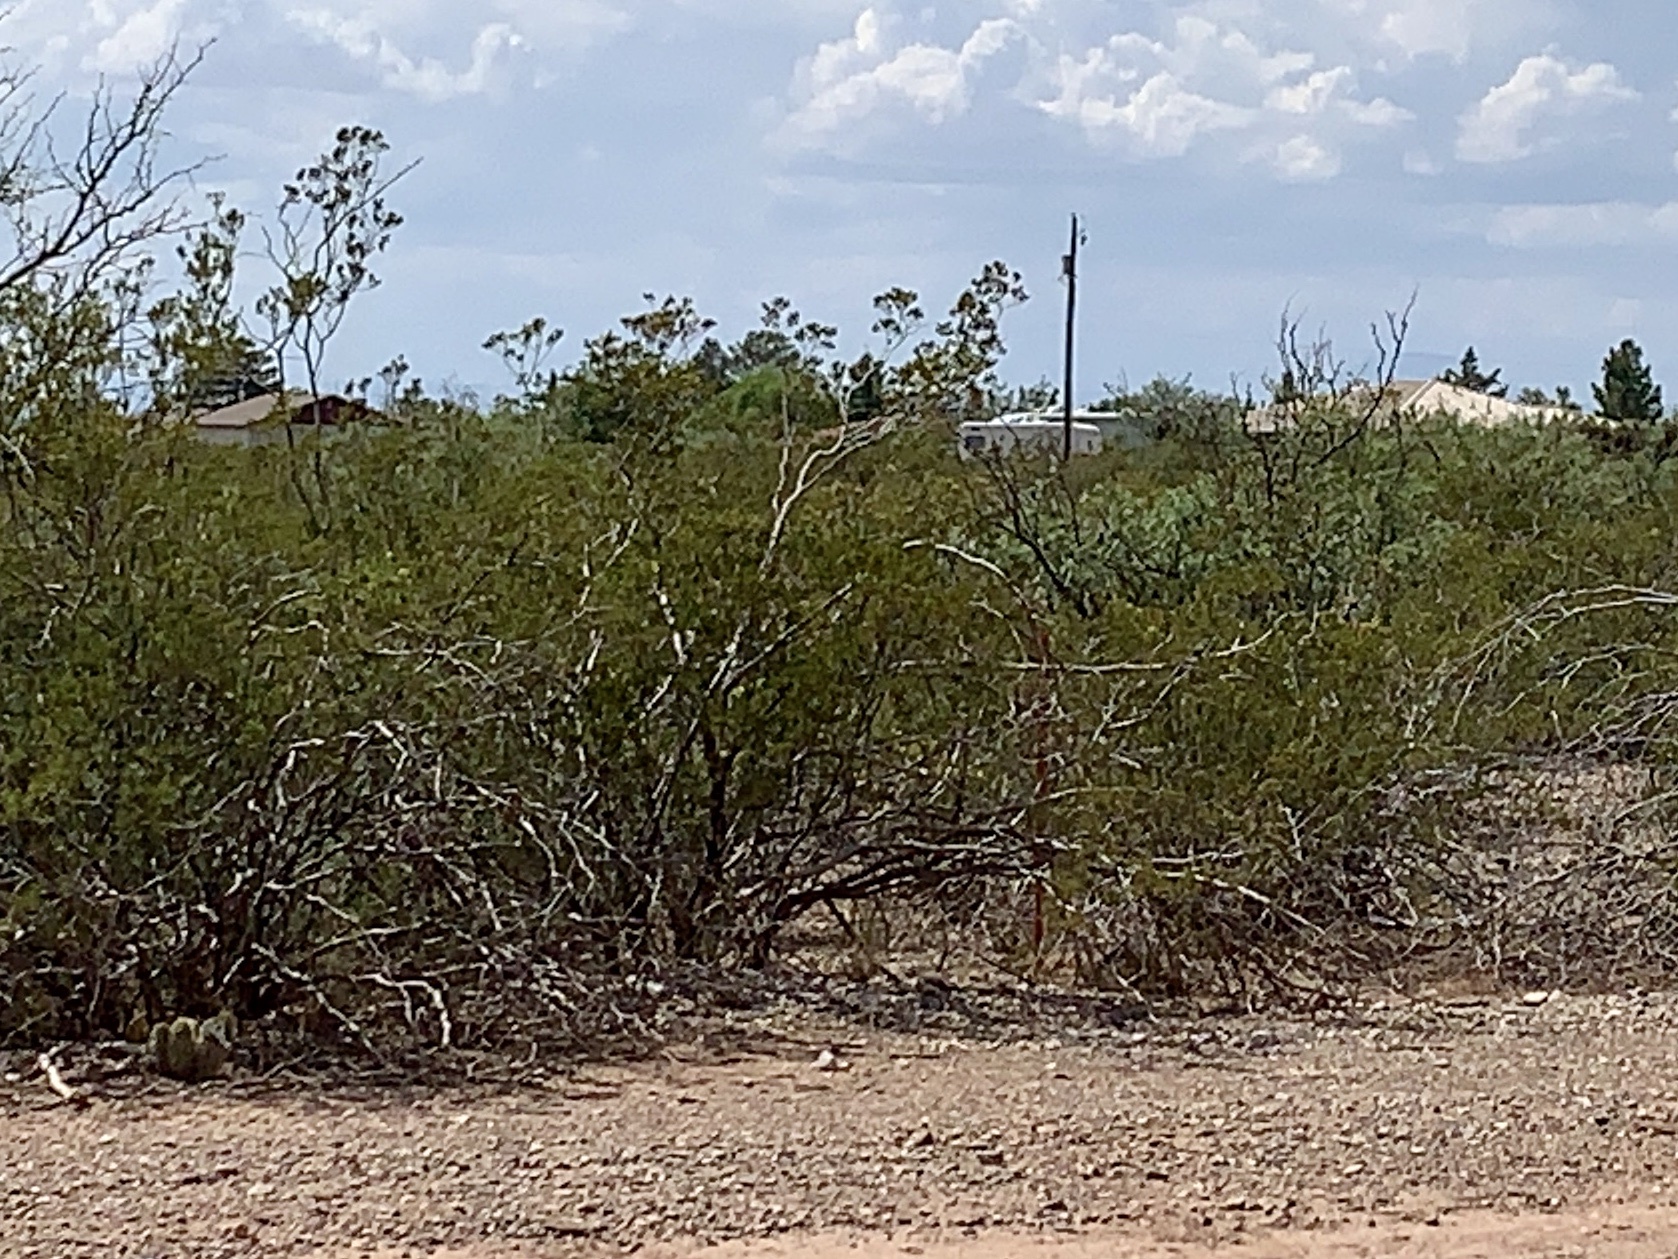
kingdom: Plantae
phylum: Tracheophyta
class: Magnoliopsida
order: Zygophyllales
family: Zygophyllaceae
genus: Larrea
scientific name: Larrea tridentata
